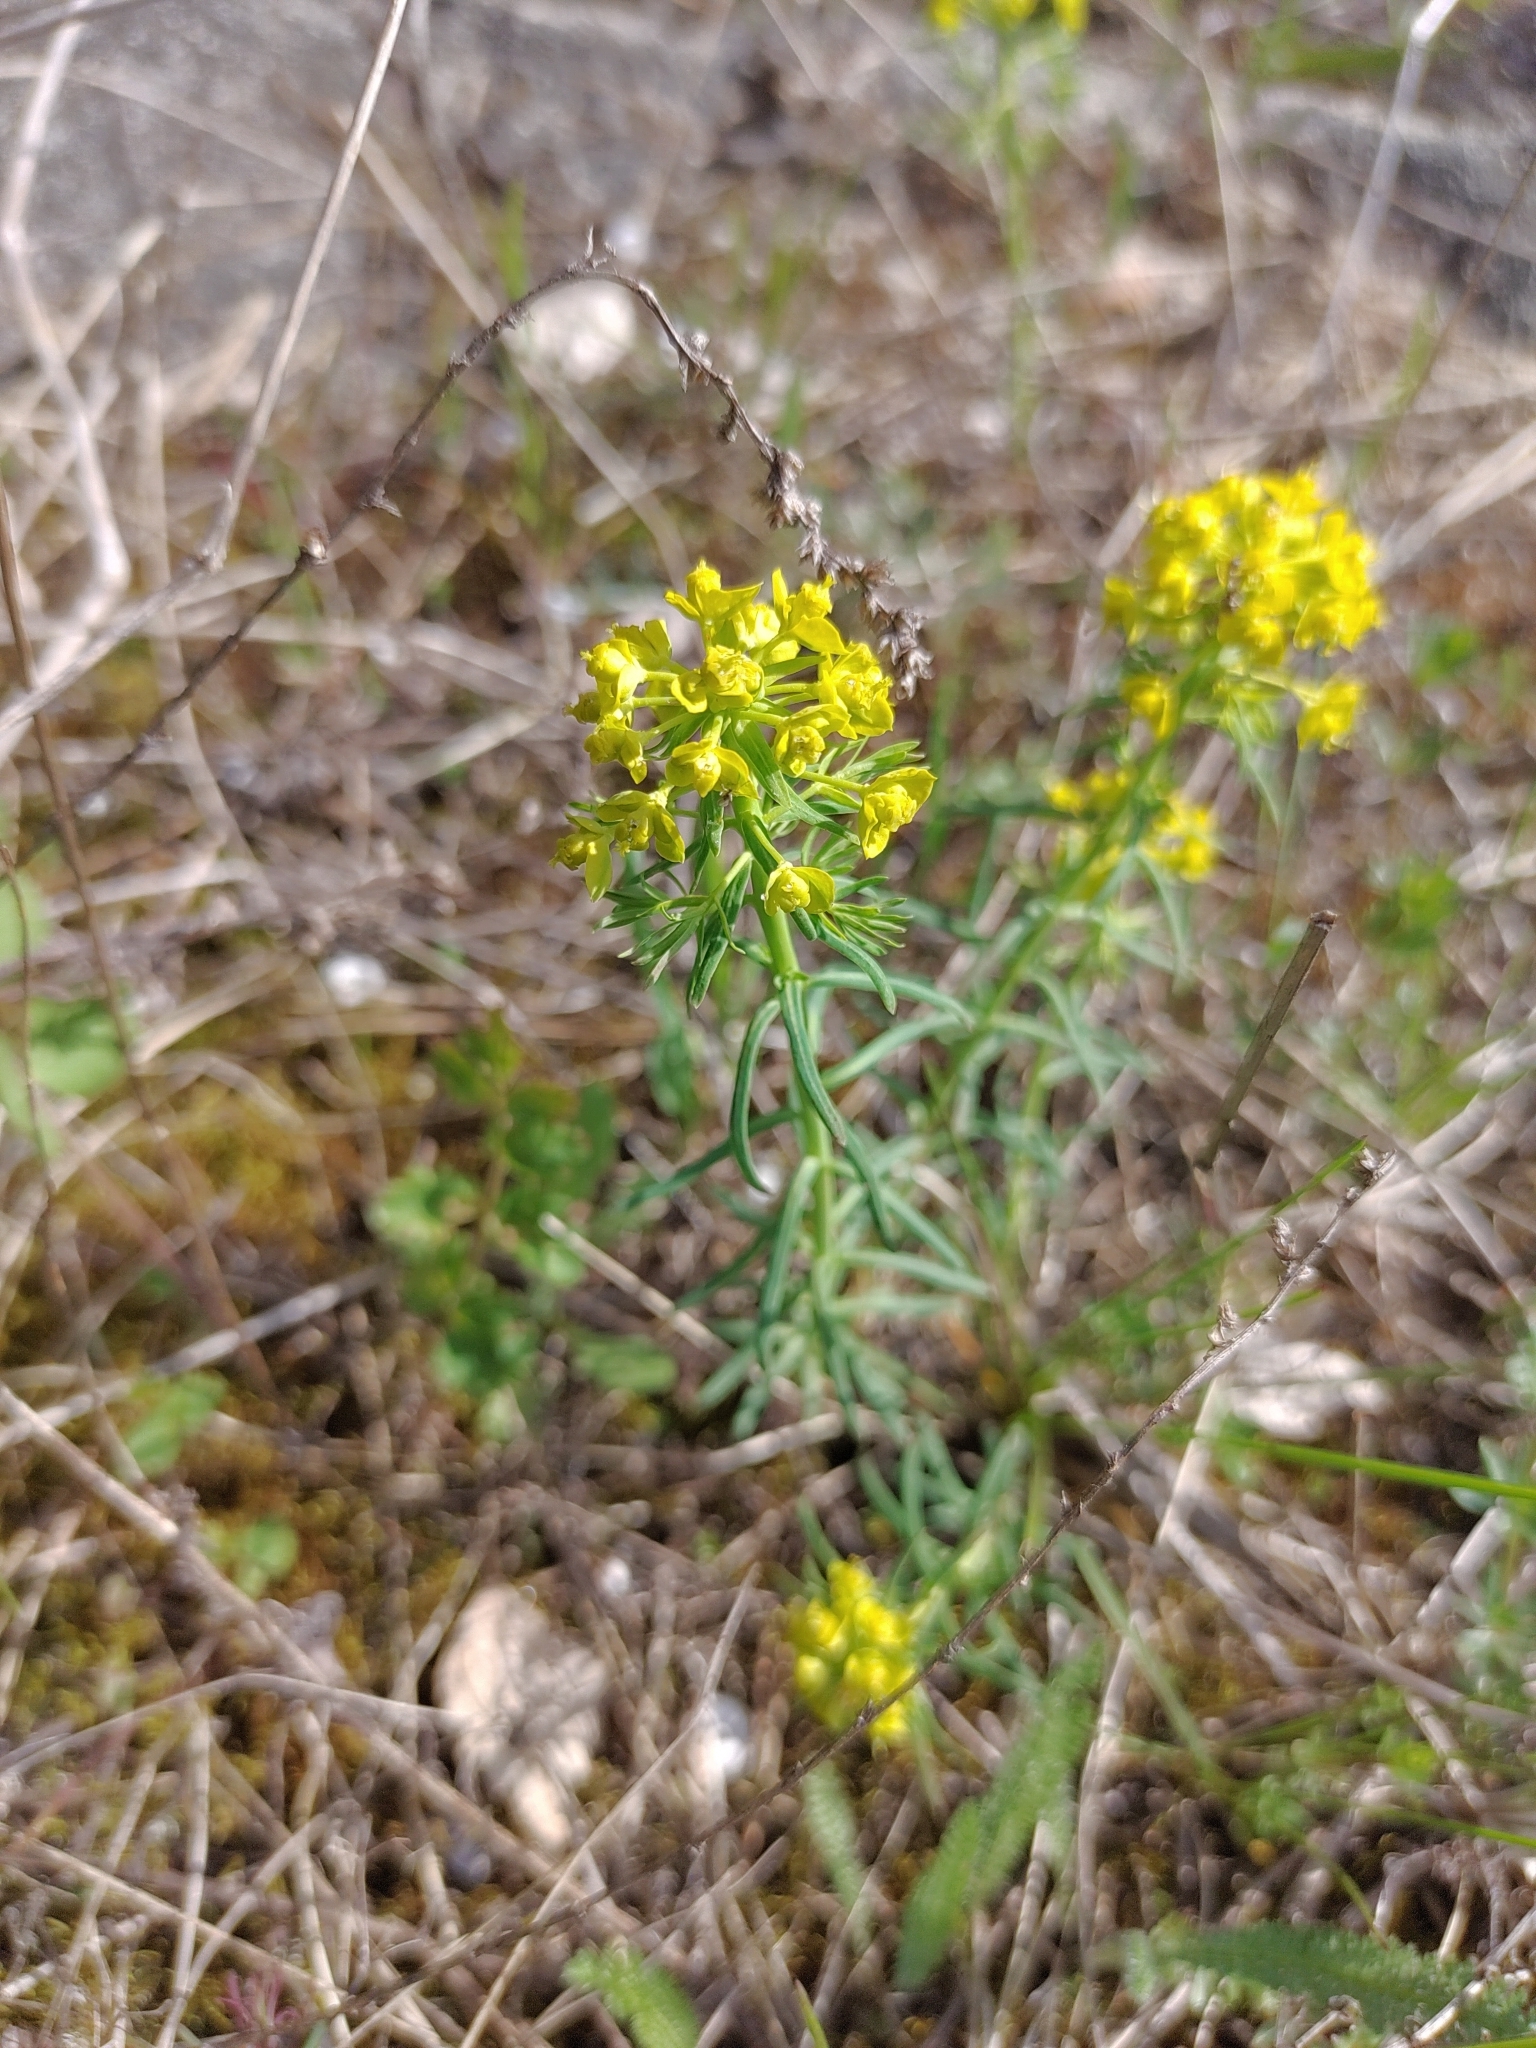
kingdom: Plantae
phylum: Tracheophyta
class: Magnoliopsida
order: Malpighiales
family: Euphorbiaceae
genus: Euphorbia
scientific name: Euphorbia cyparissias
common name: Cypress spurge
